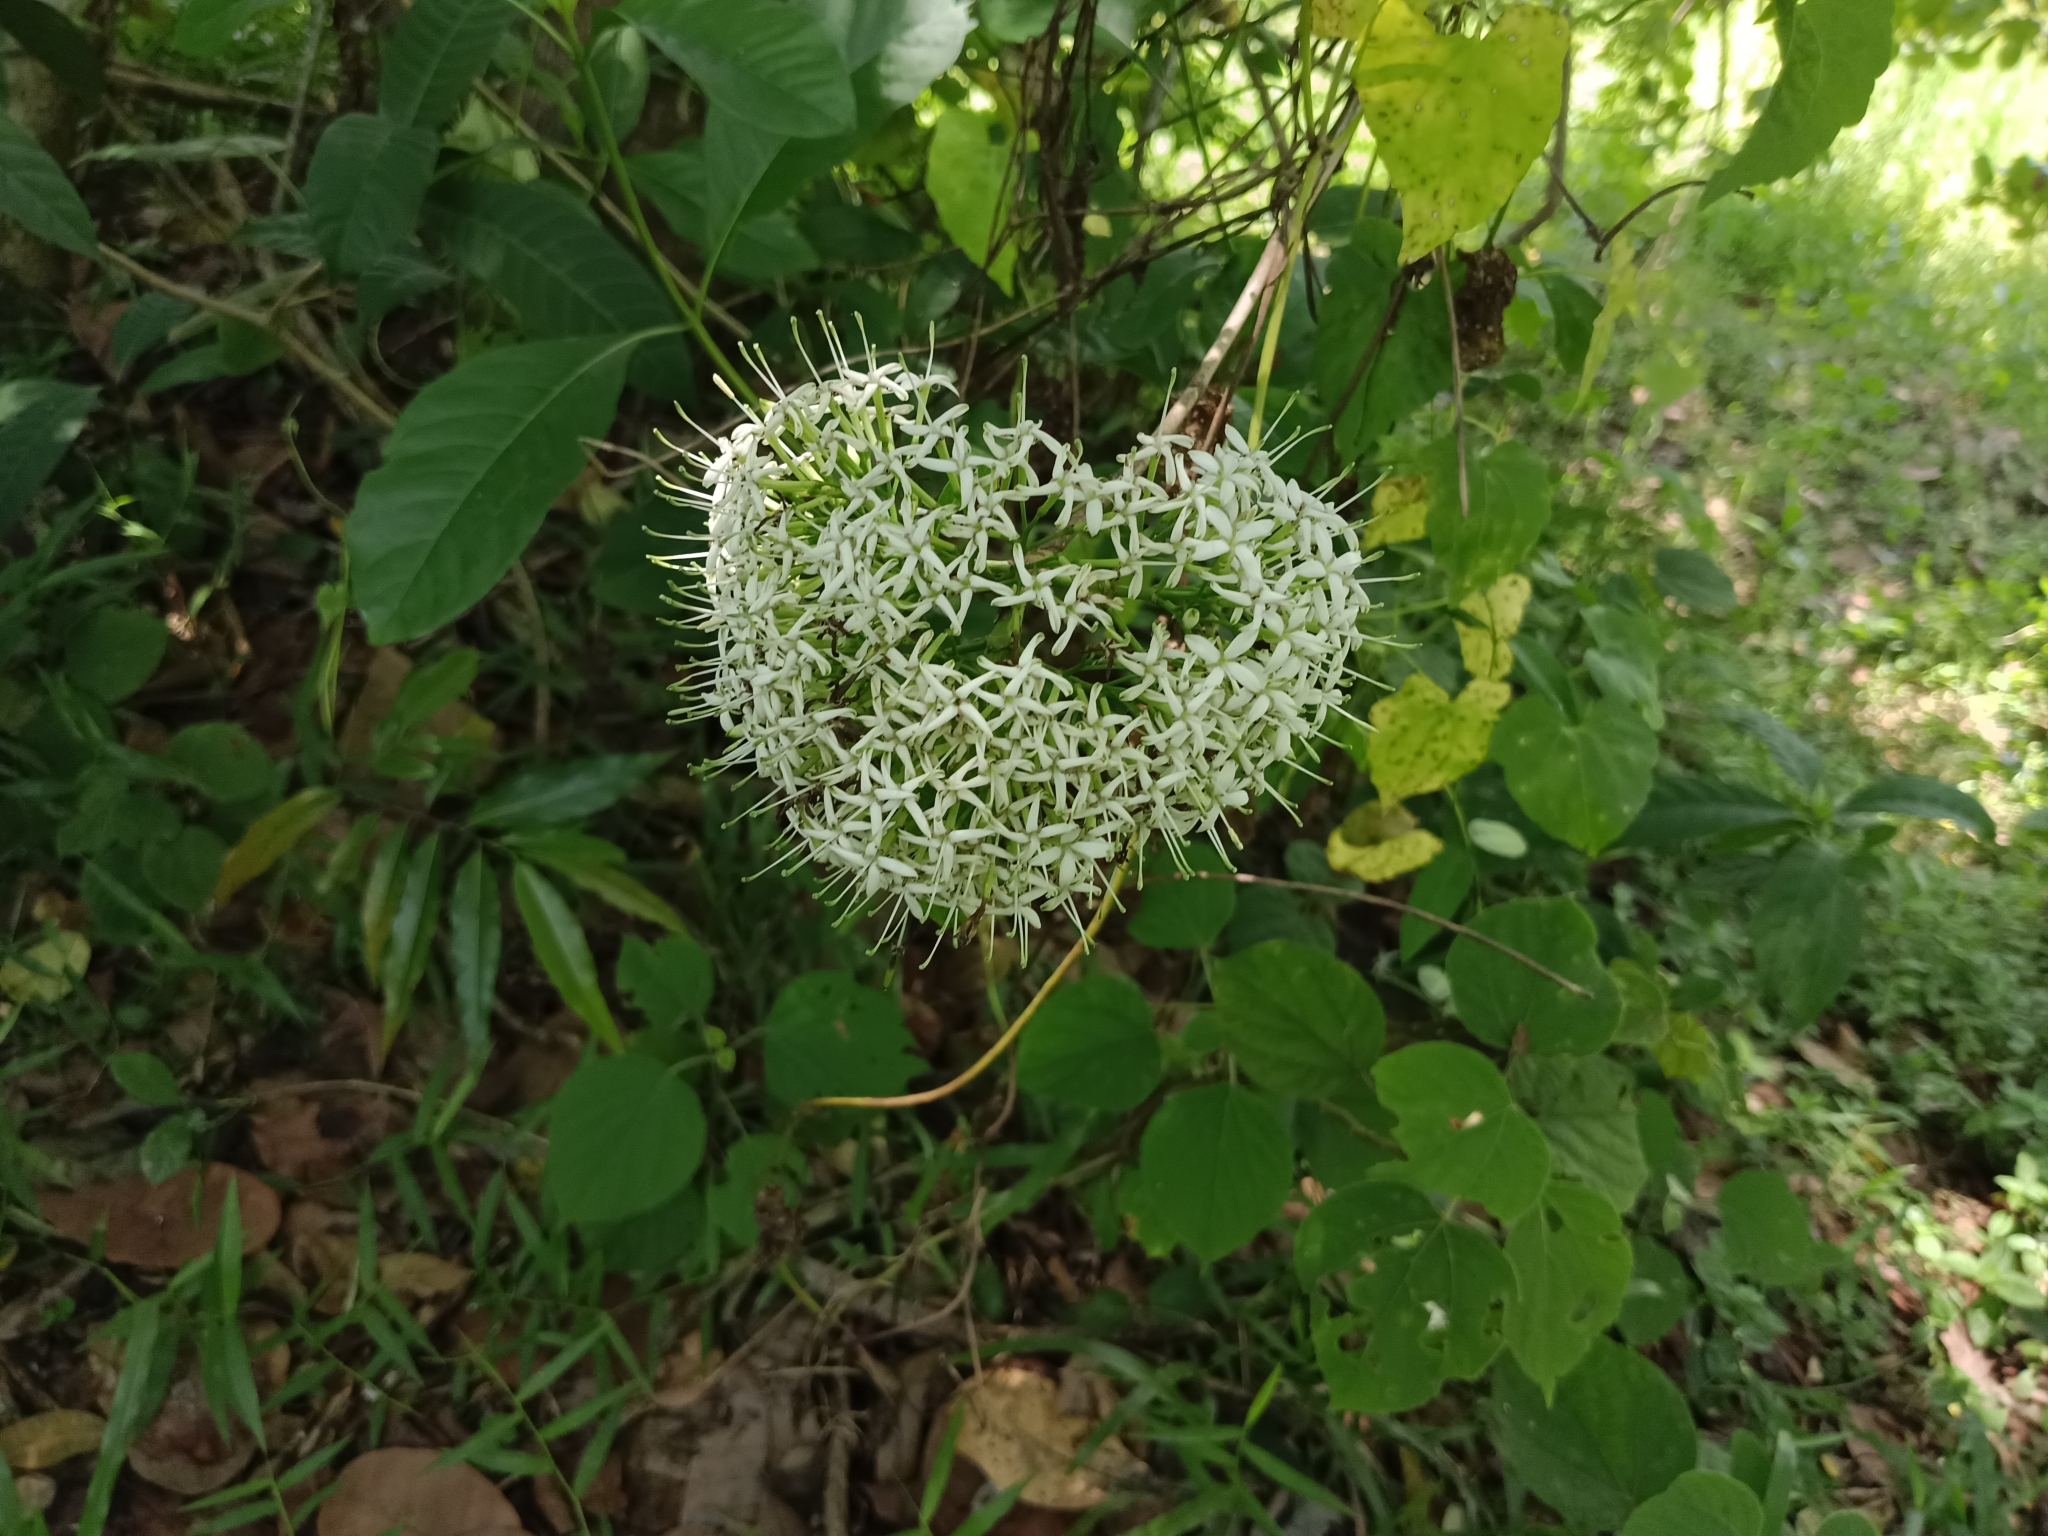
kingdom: Plantae
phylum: Tracheophyta
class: Magnoliopsida
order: Gentianales
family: Rubiaceae
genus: Pavetta
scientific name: Pavetta indica
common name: Indian pavetta
